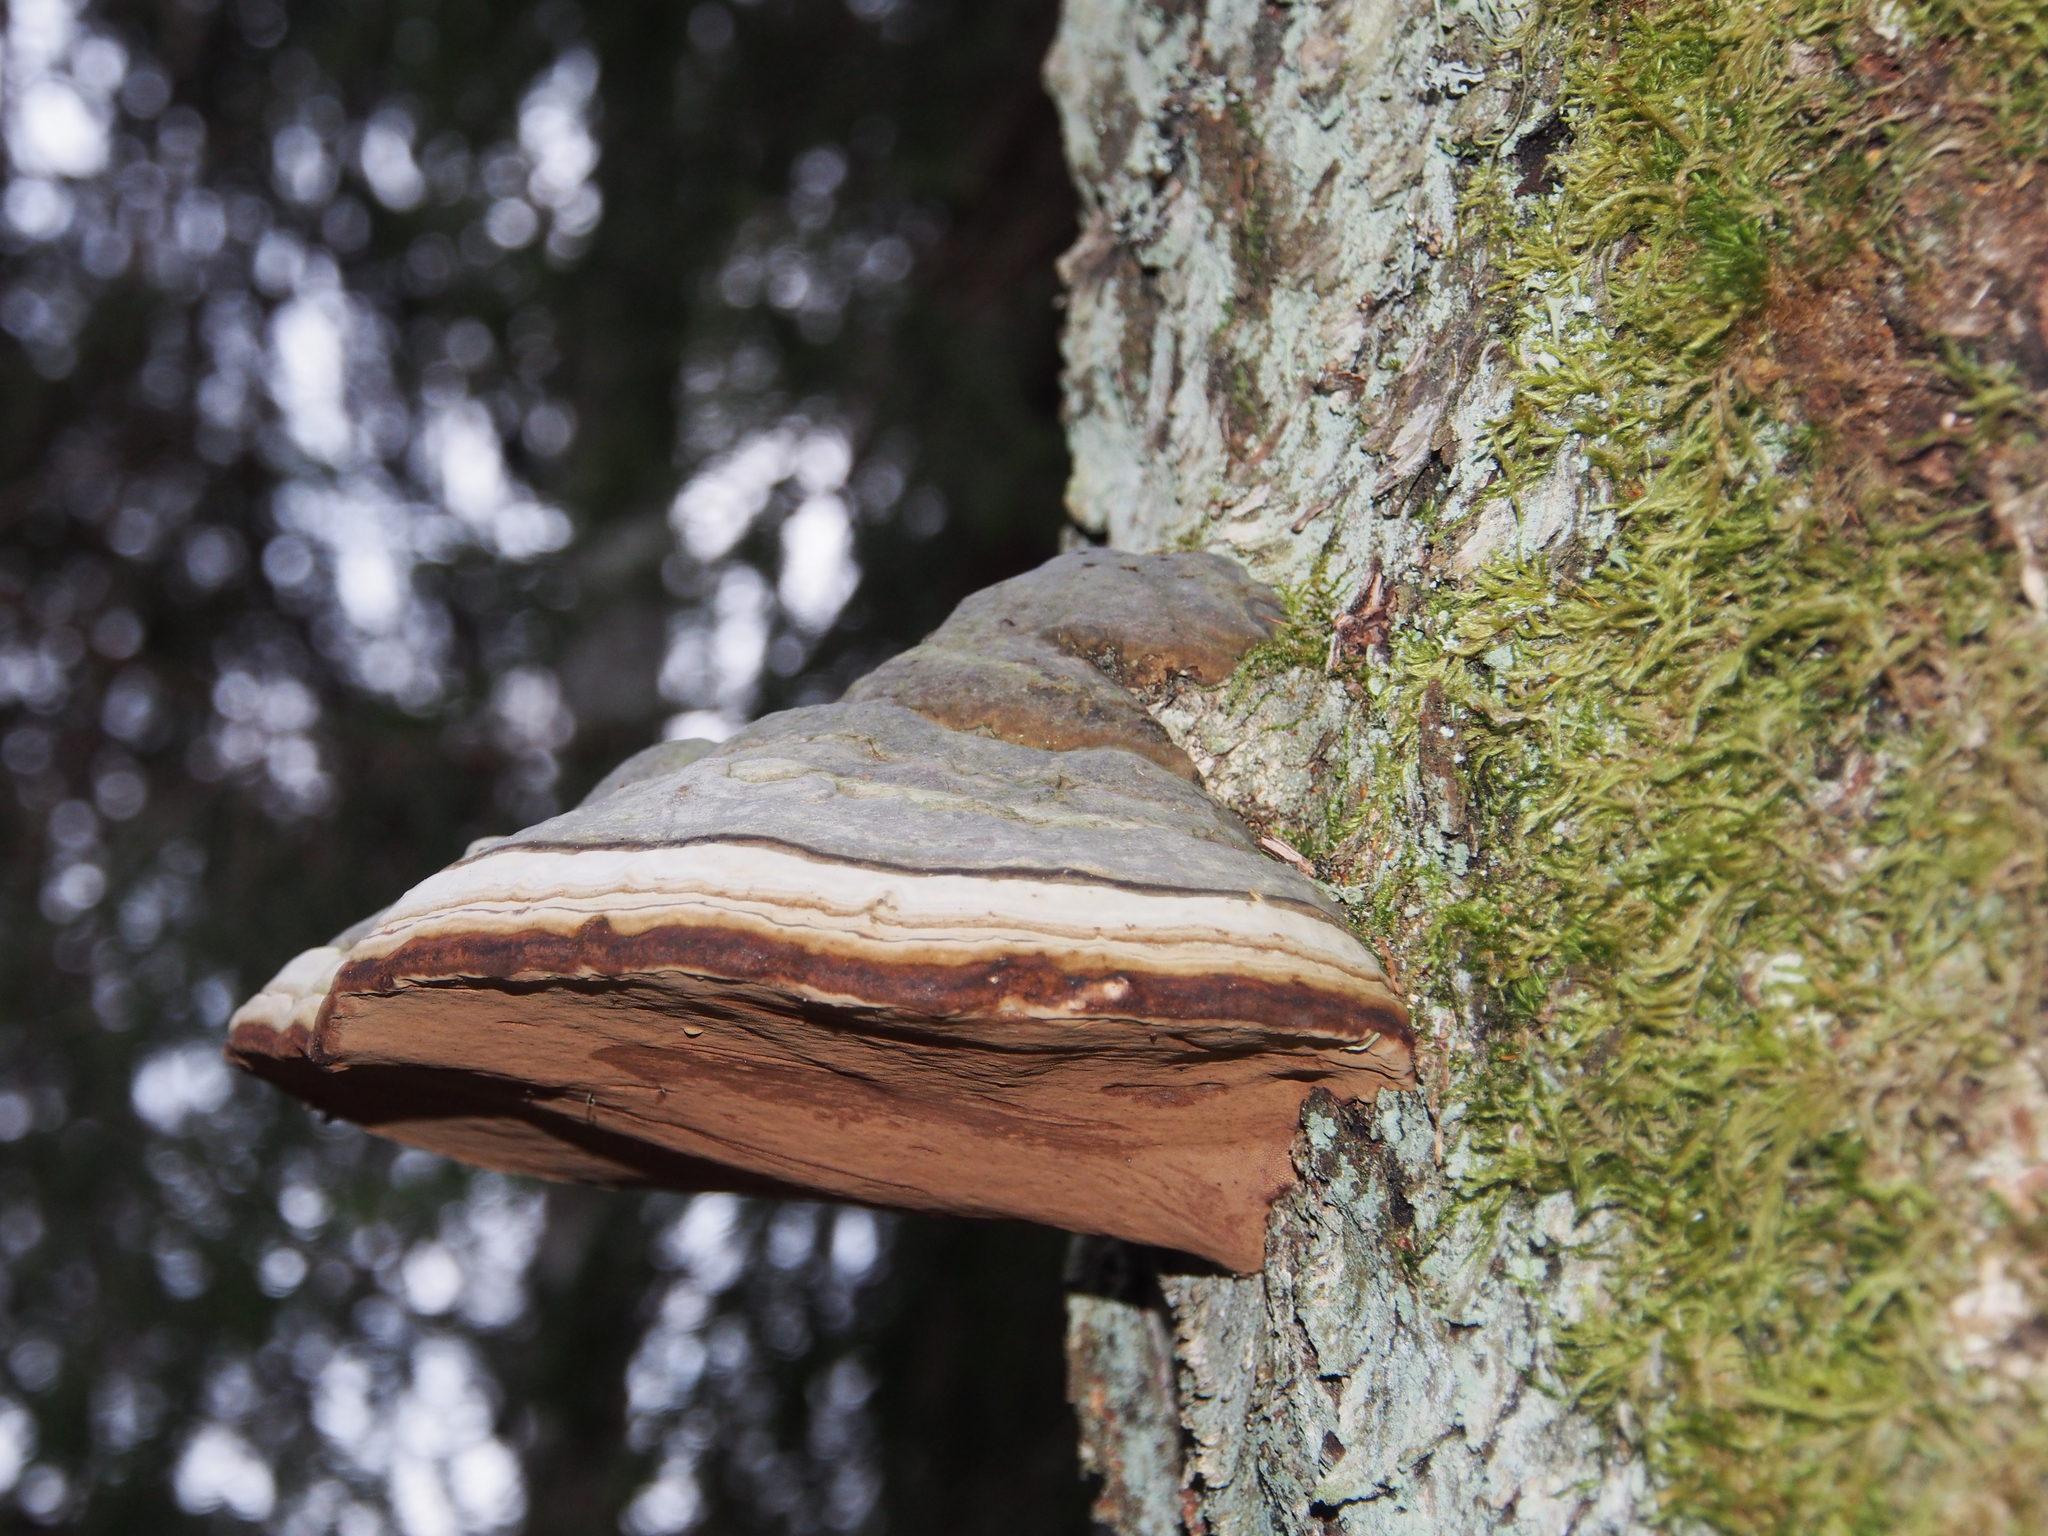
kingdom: Fungi
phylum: Basidiomycota
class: Agaricomycetes
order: Polyporales
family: Polyporaceae
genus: Fomes
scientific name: Fomes fomentarius
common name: Hoof fungus
